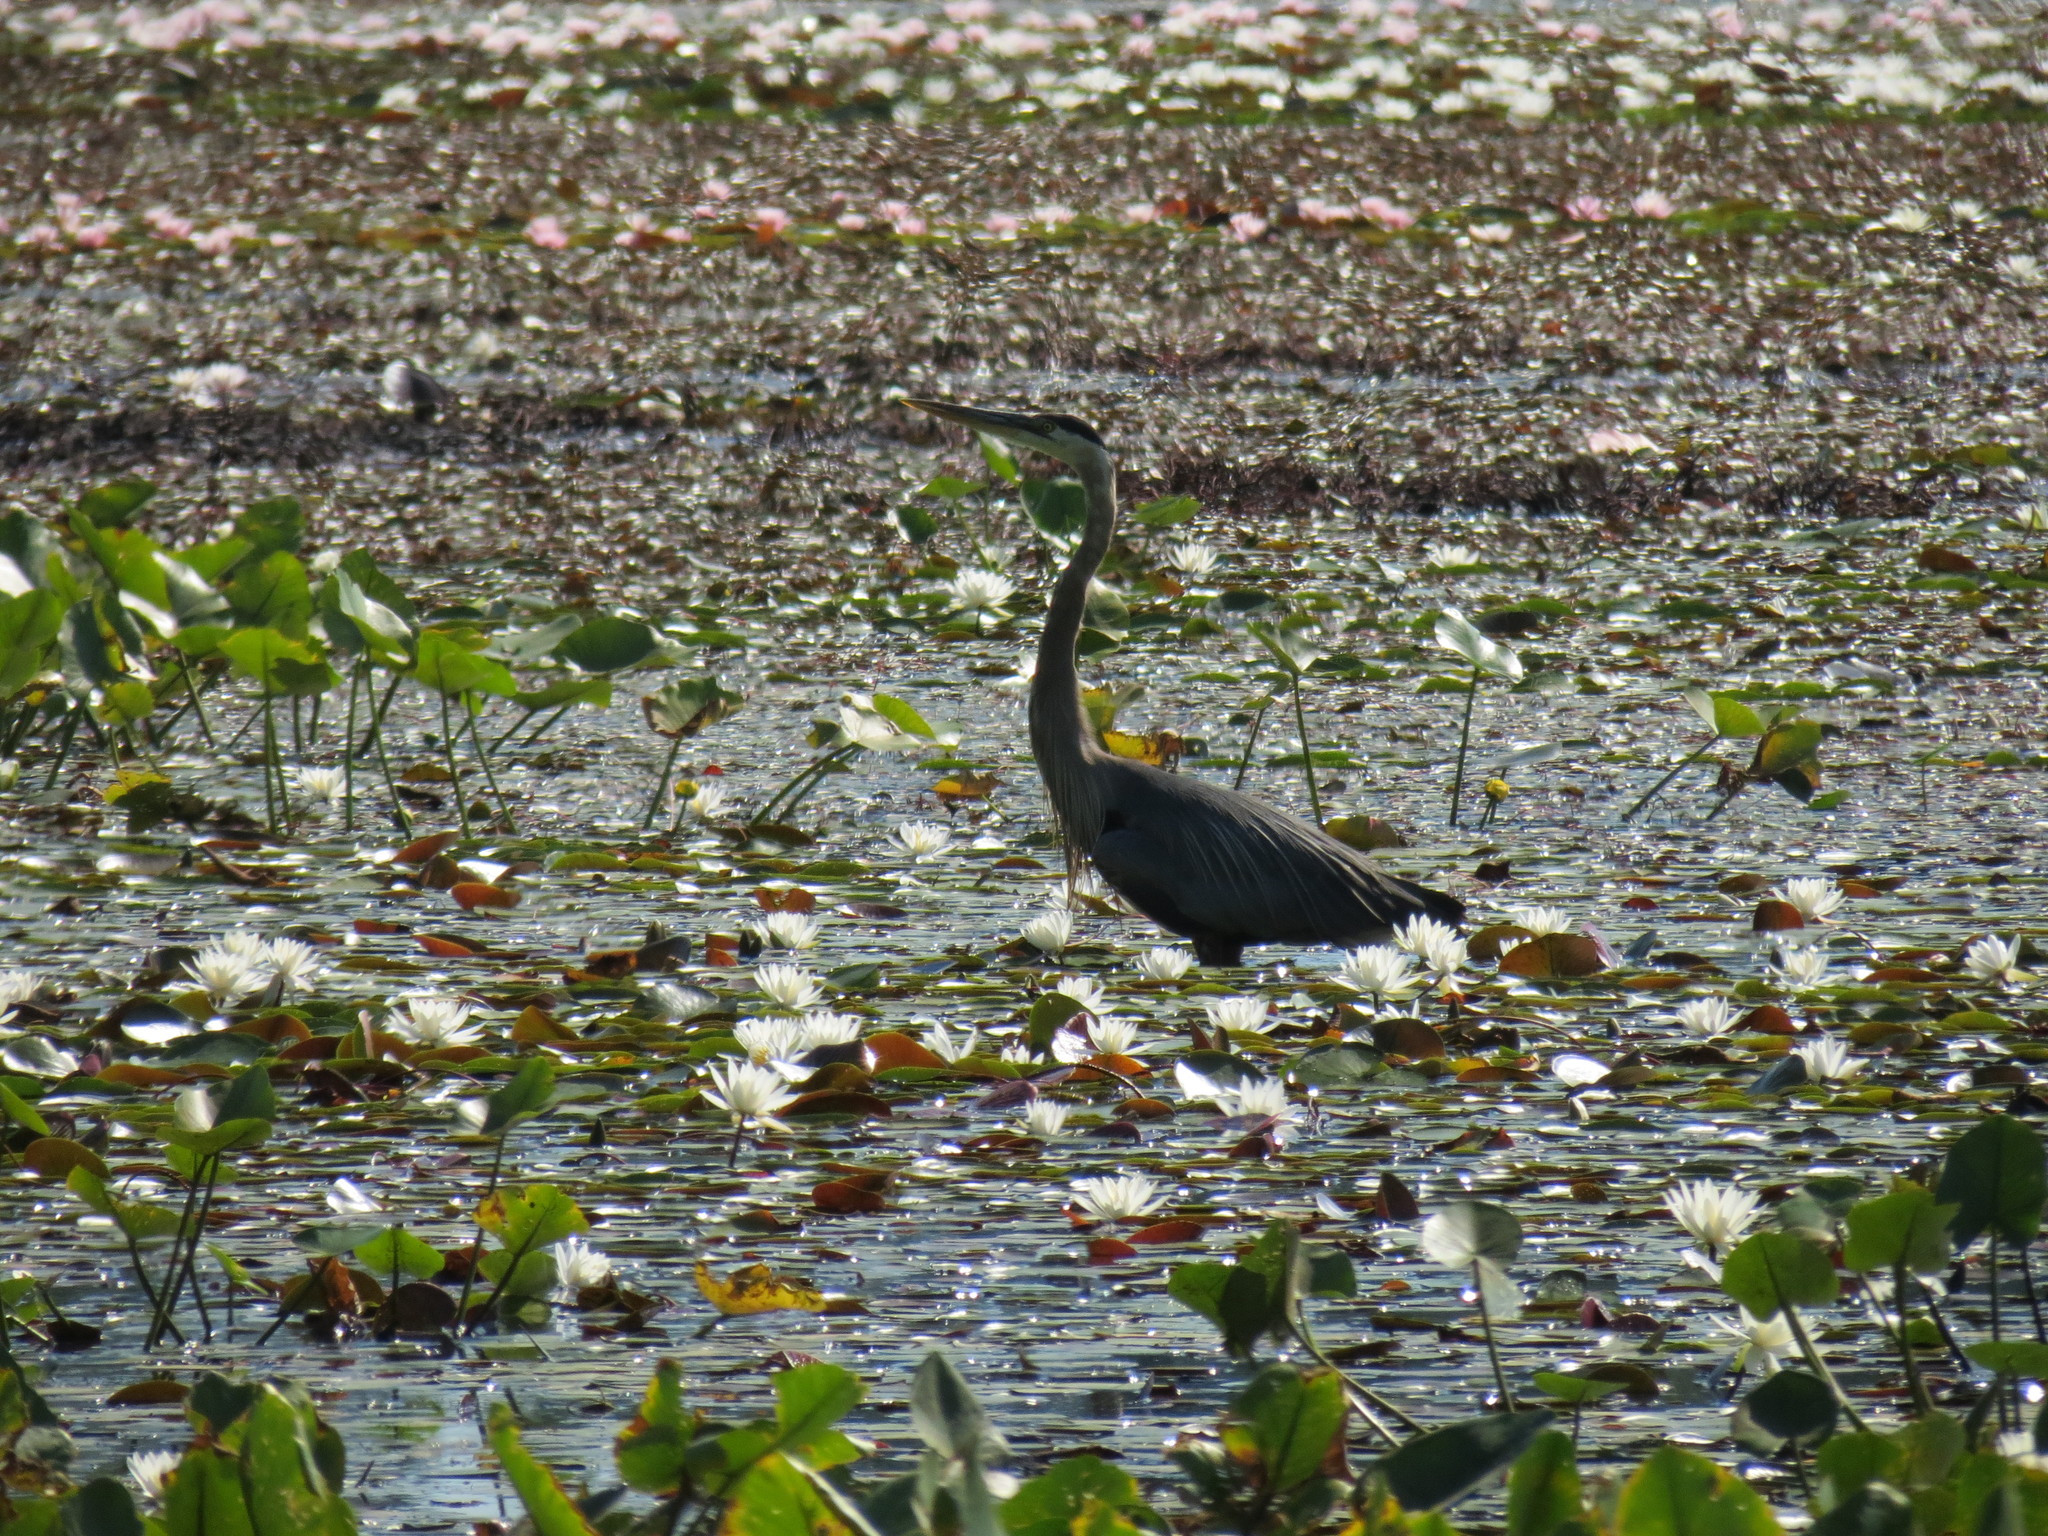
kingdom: Animalia
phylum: Chordata
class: Aves
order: Pelecaniformes
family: Ardeidae
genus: Ardea
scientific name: Ardea herodias
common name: Great blue heron
